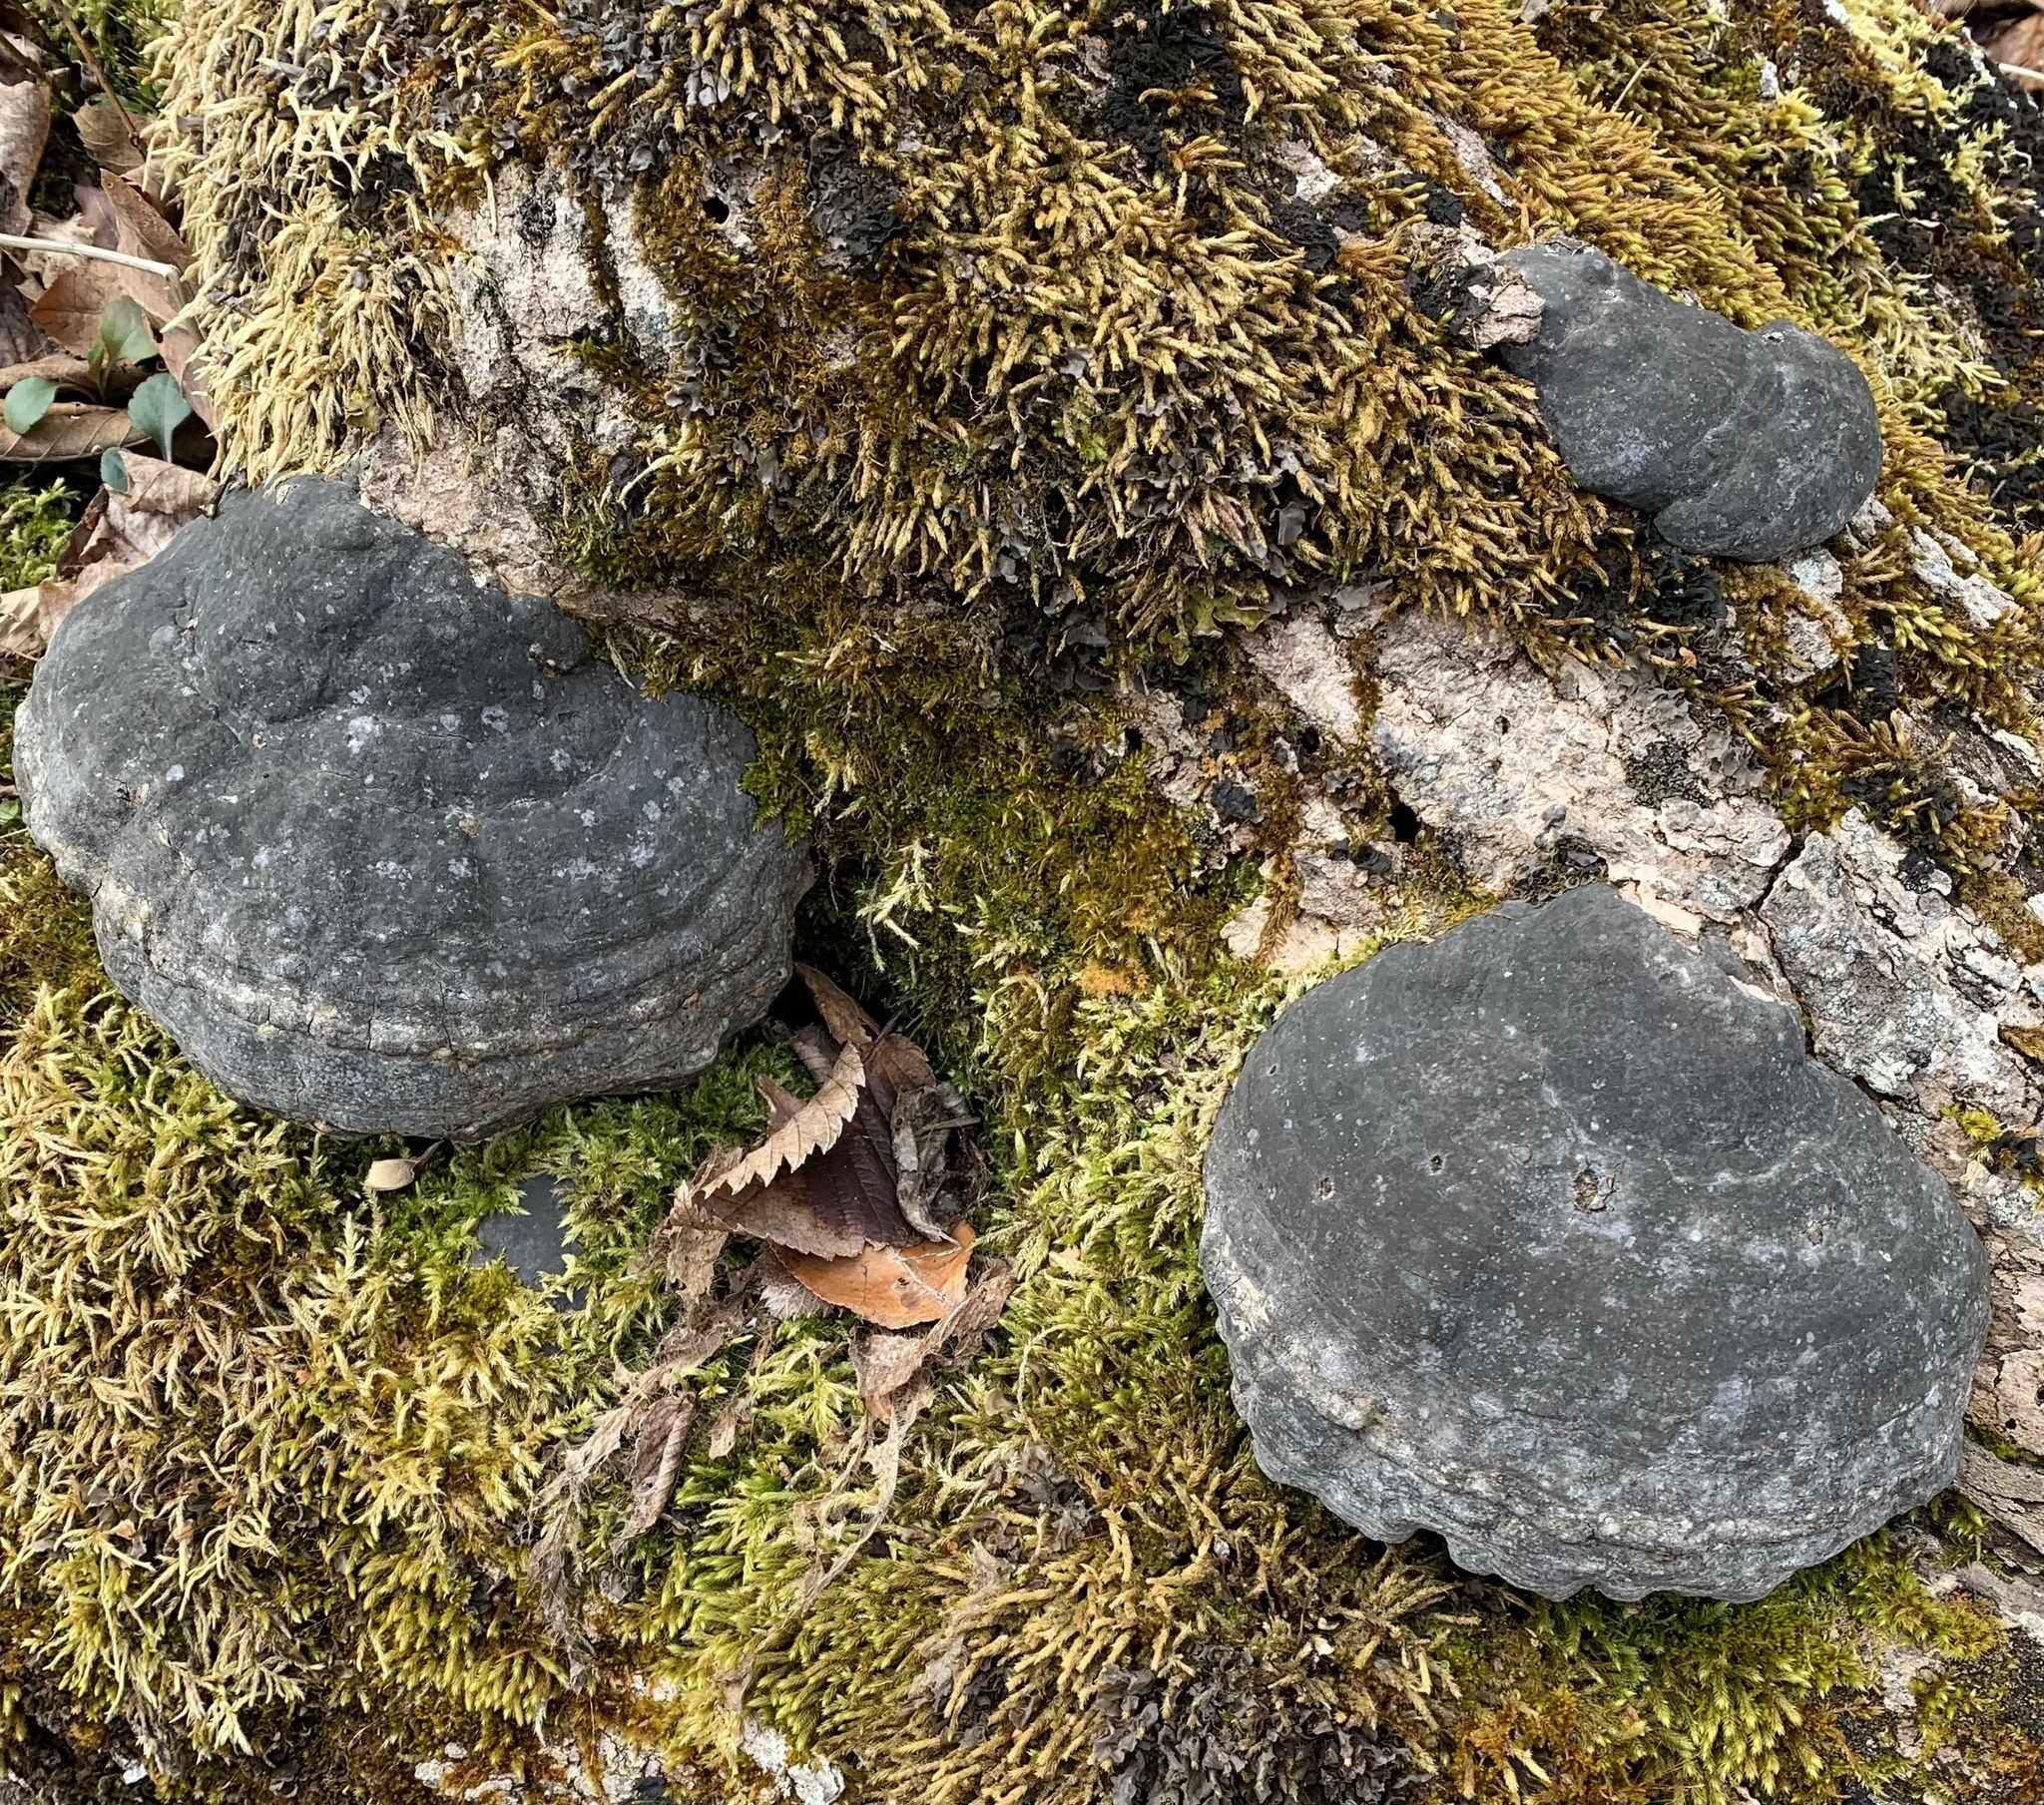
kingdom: Fungi
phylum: Basidiomycota
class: Agaricomycetes
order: Polyporales
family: Polyporaceae
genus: Fomes
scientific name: Fomes fomentarius
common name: Hoof fungus
